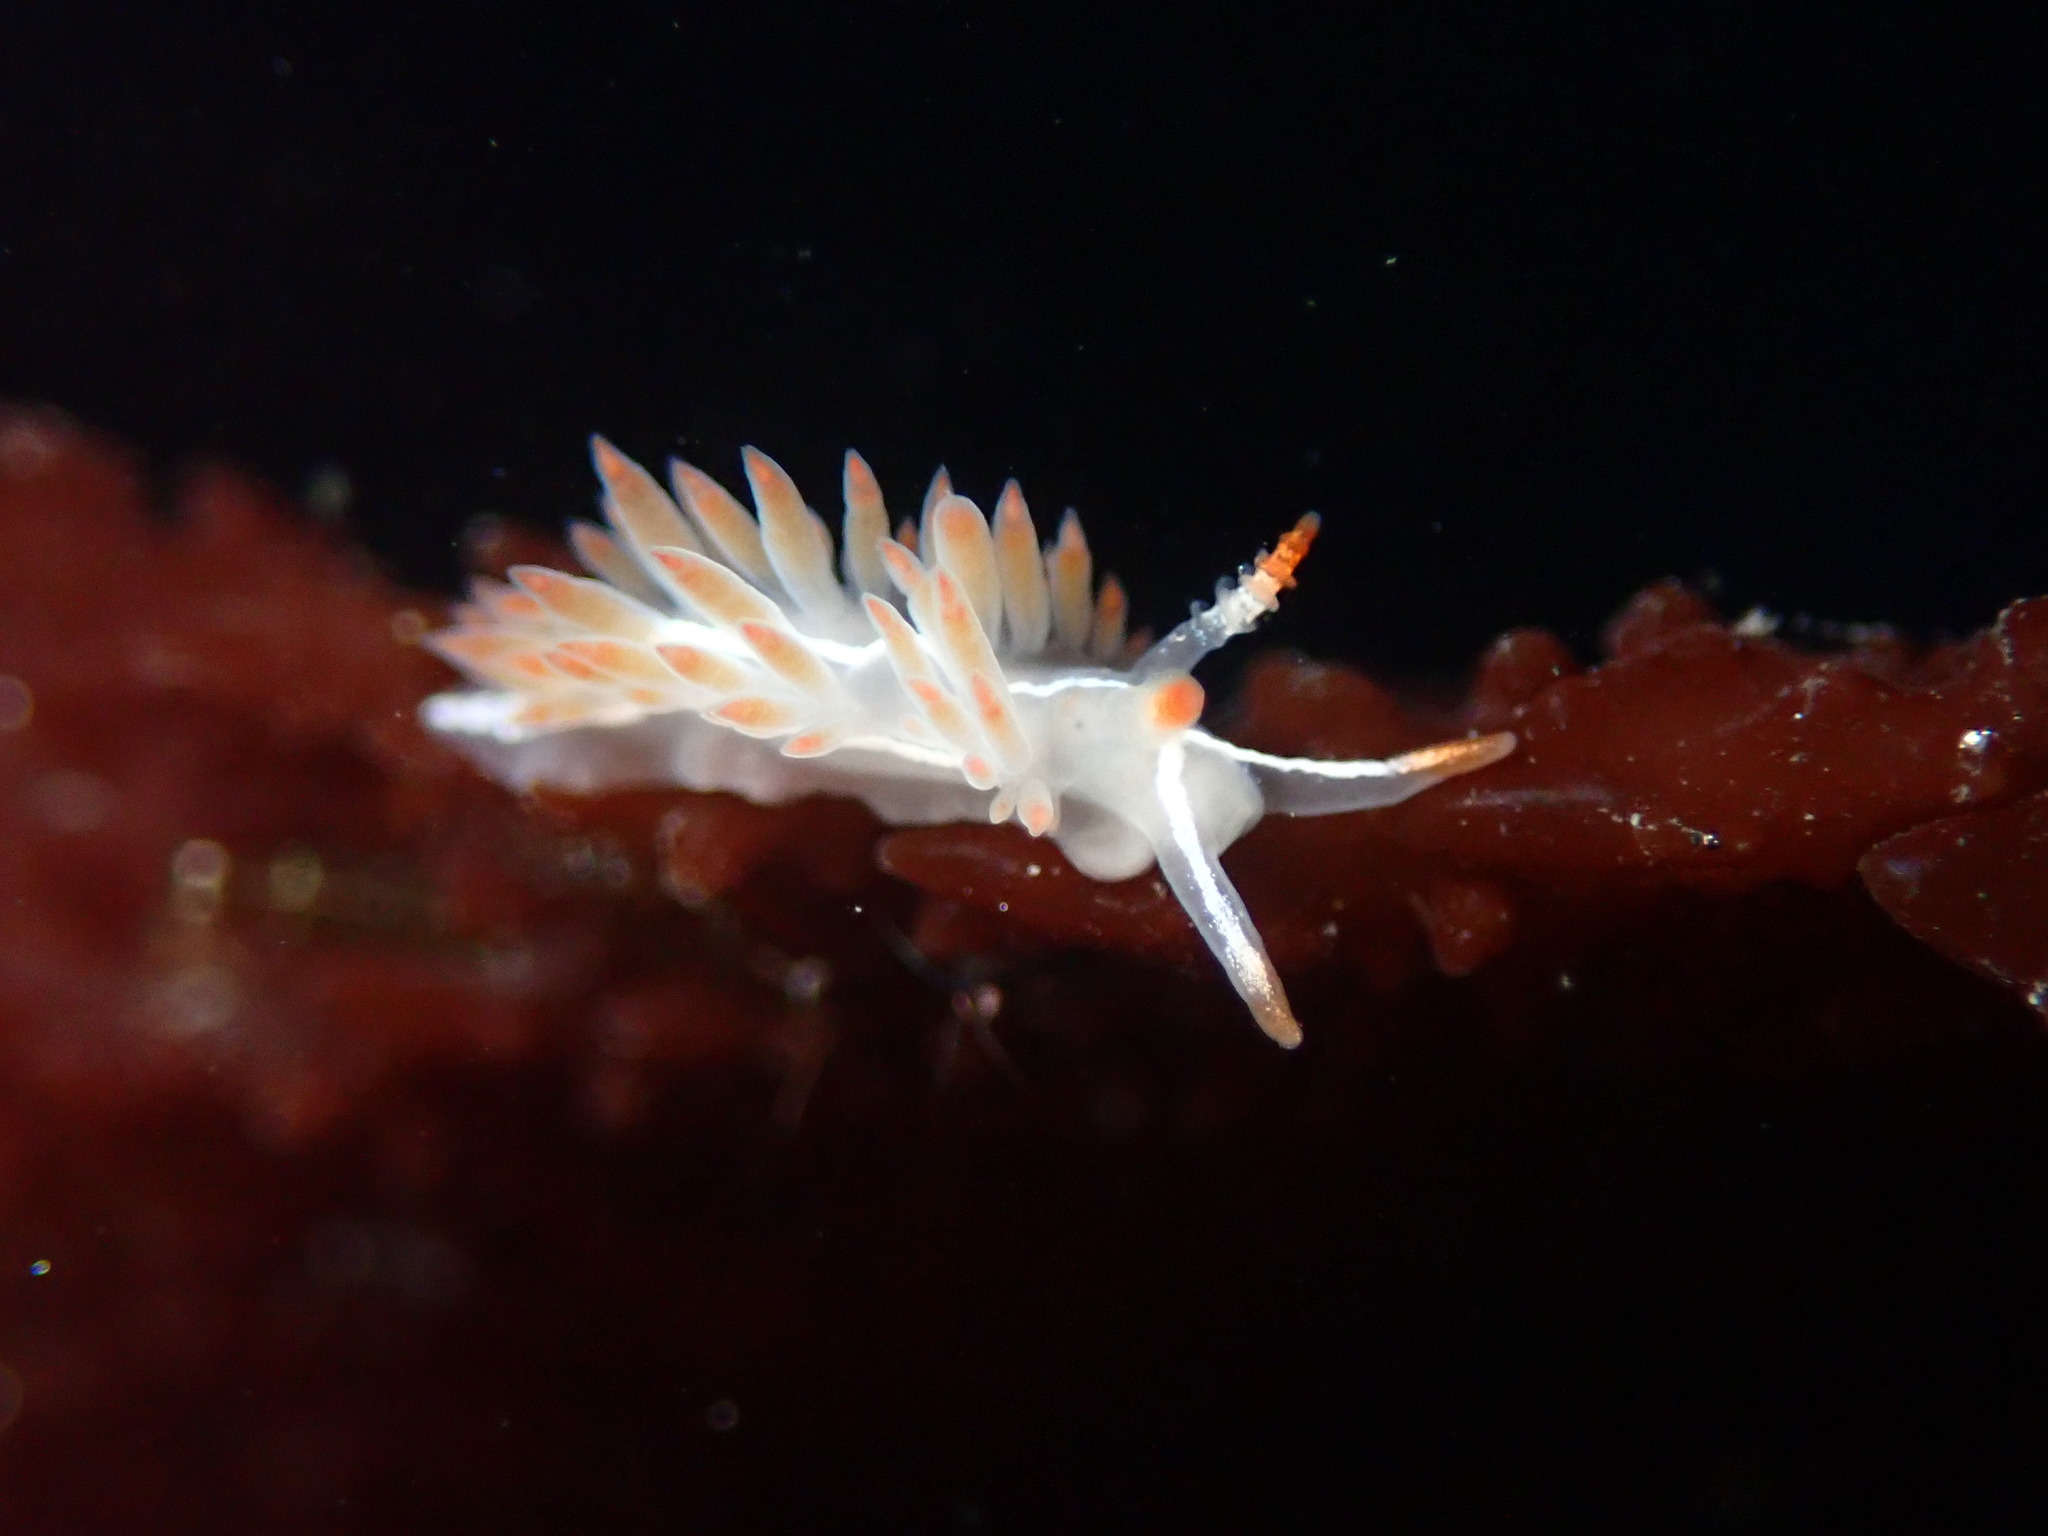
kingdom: Animalia
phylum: Mollusca
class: Gastropoda
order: Nudibranchia
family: Coryphellidae
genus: Coryphella
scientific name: Coryphella trilineata
